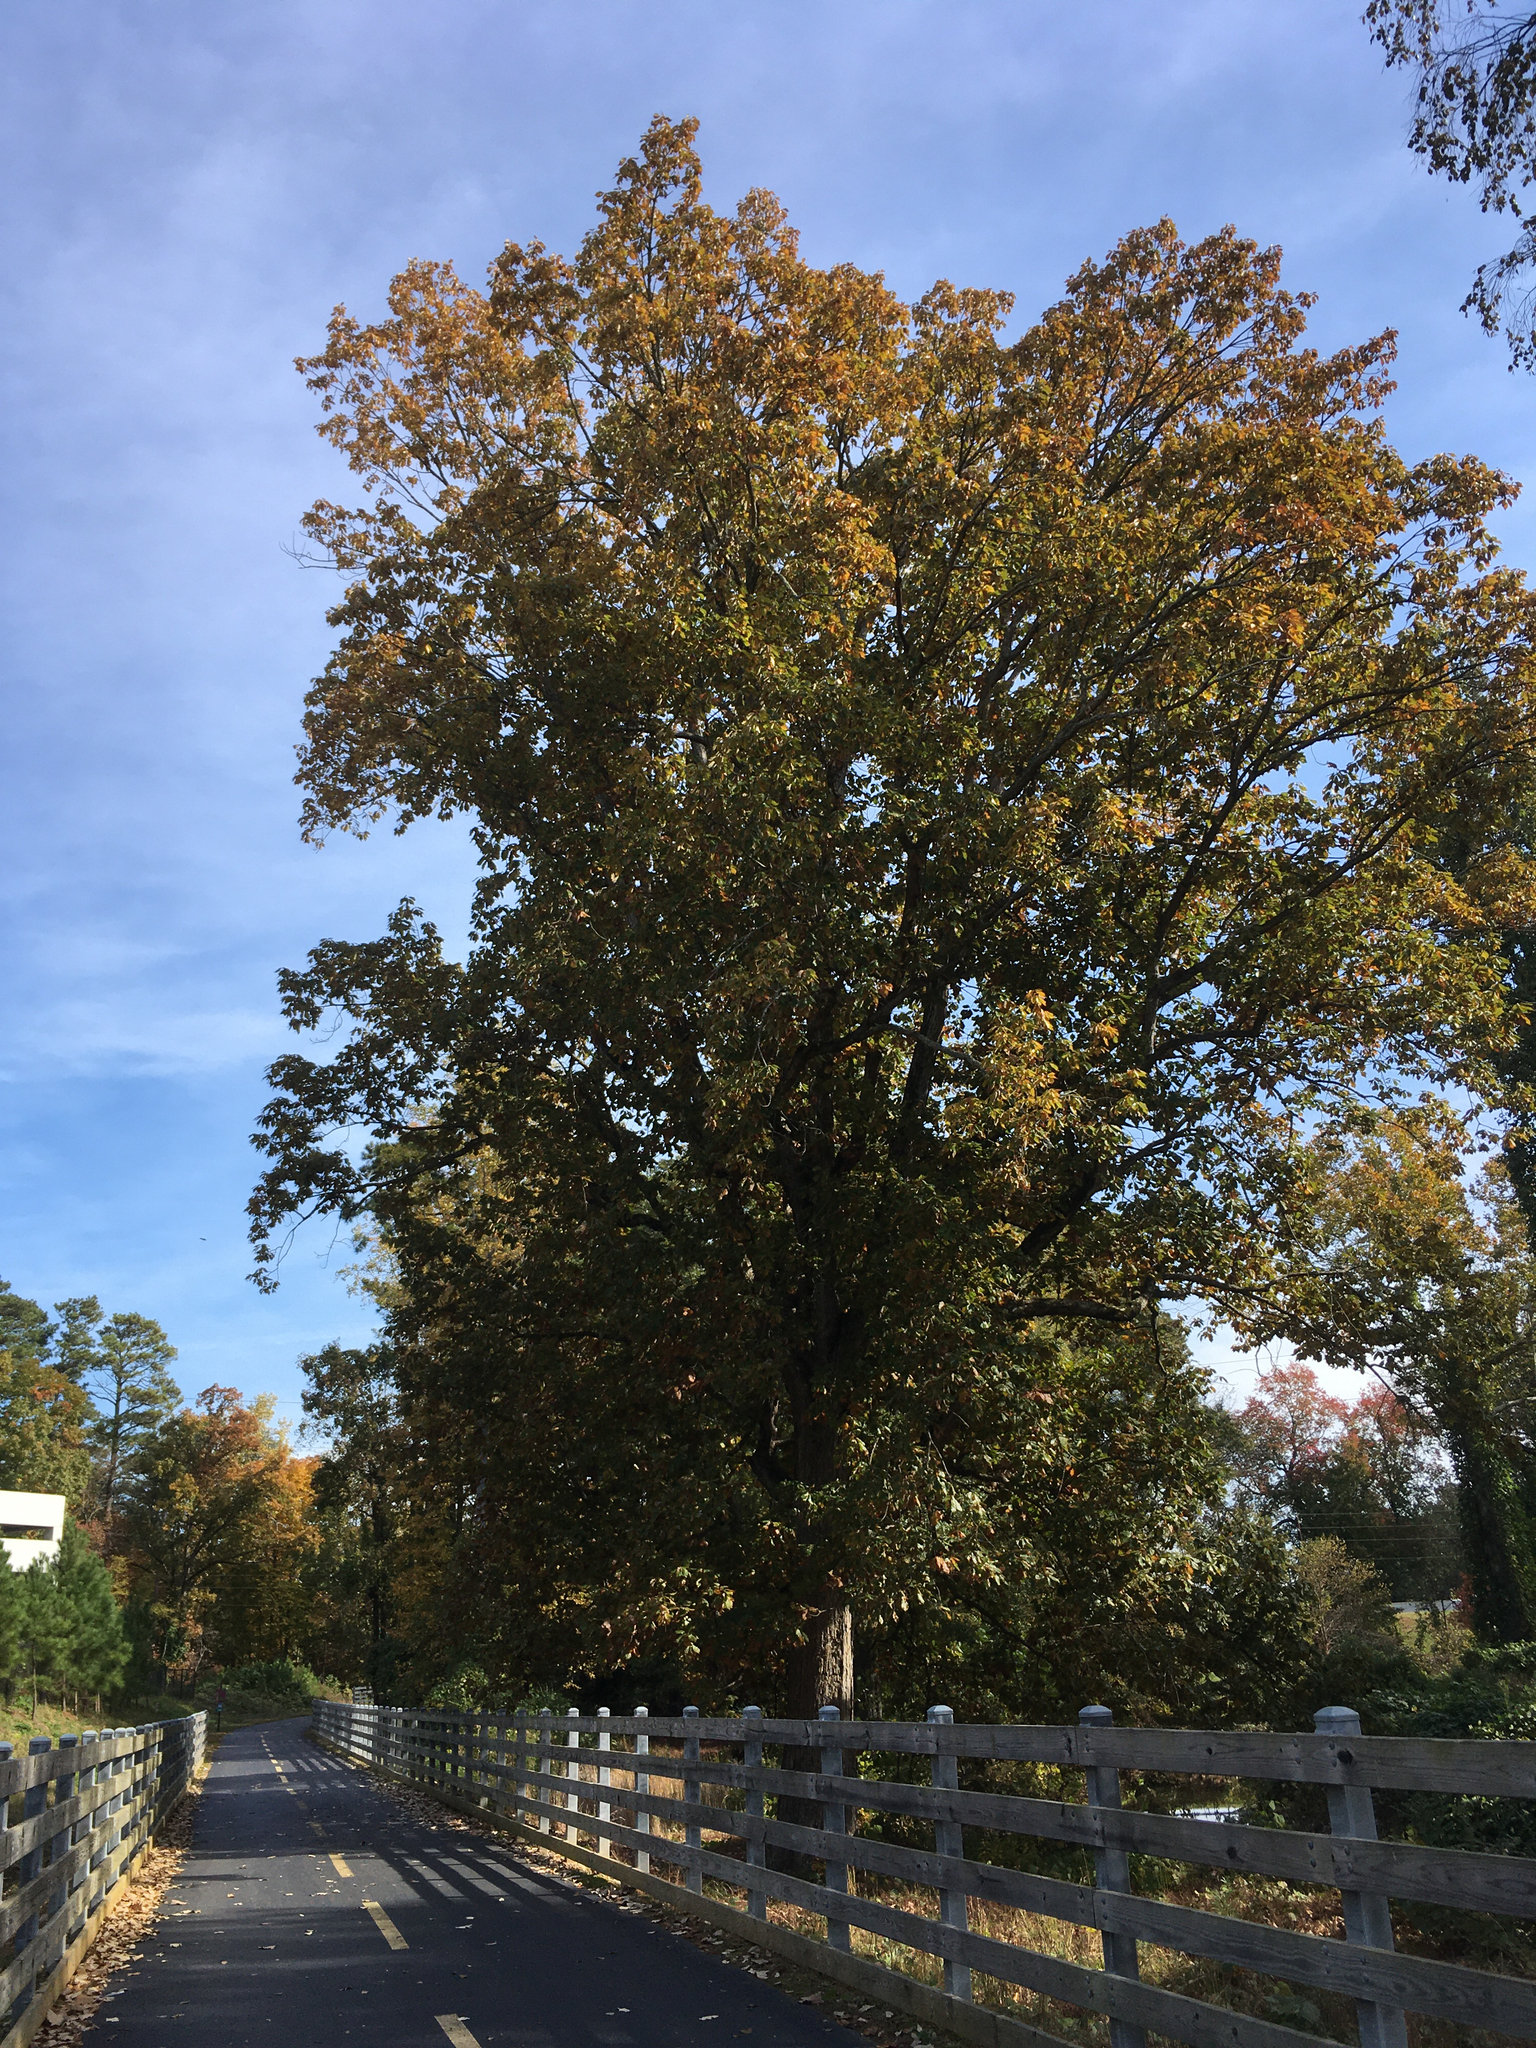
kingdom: Plantae
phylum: Tracheophyta
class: Magnoliopsida
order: Fagales
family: Fagaceae
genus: Quercus
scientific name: Quercus michauxii
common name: Swamp chestnut oak
